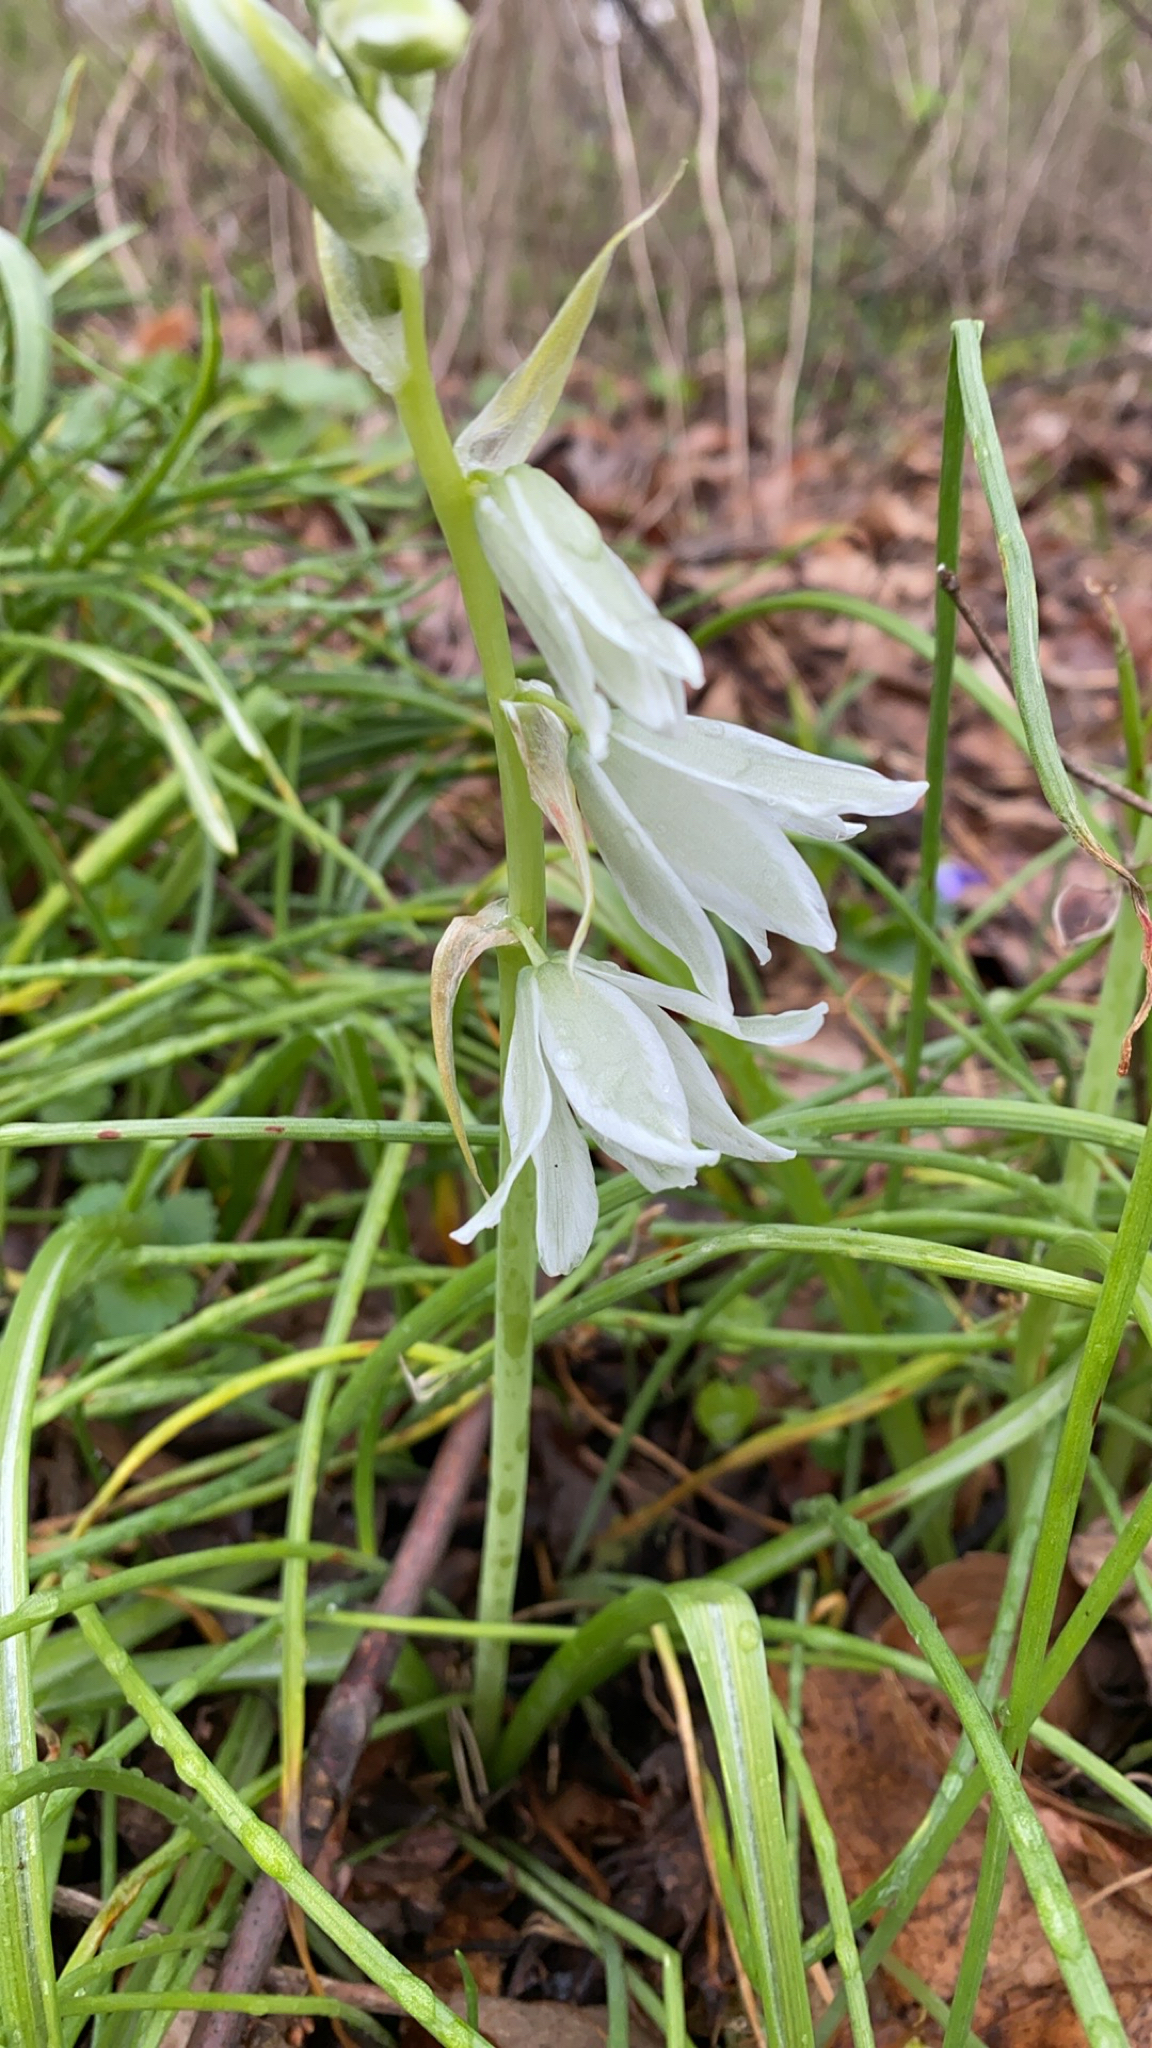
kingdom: Plantae
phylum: Tracheophyta
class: Liliopsida
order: Asparagales
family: Asparagaceae
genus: Ornithogalum
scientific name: Ornithogalum nutans
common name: Drooping star-of-bethlehem
